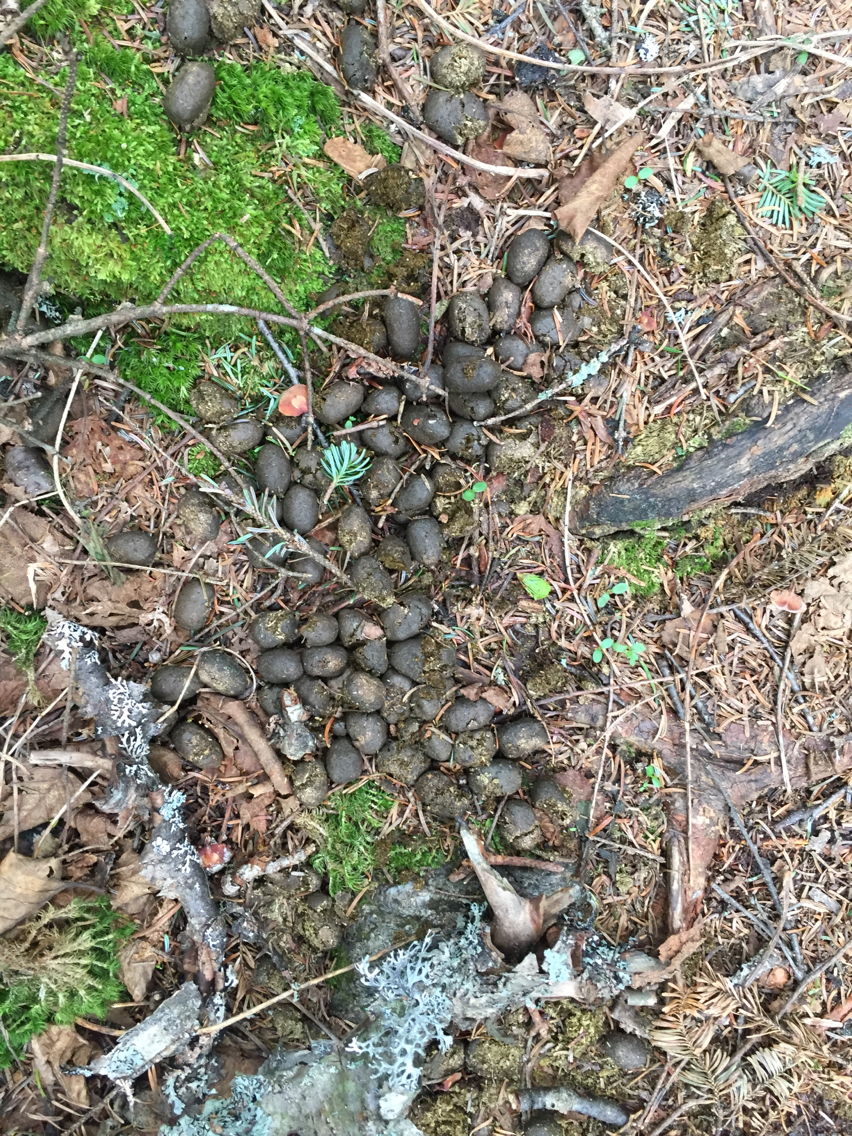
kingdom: Animalia
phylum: Chordata
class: Mammalia
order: Artiodactyla
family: Cervidae
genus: Alces
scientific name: Alces alces
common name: Moose
